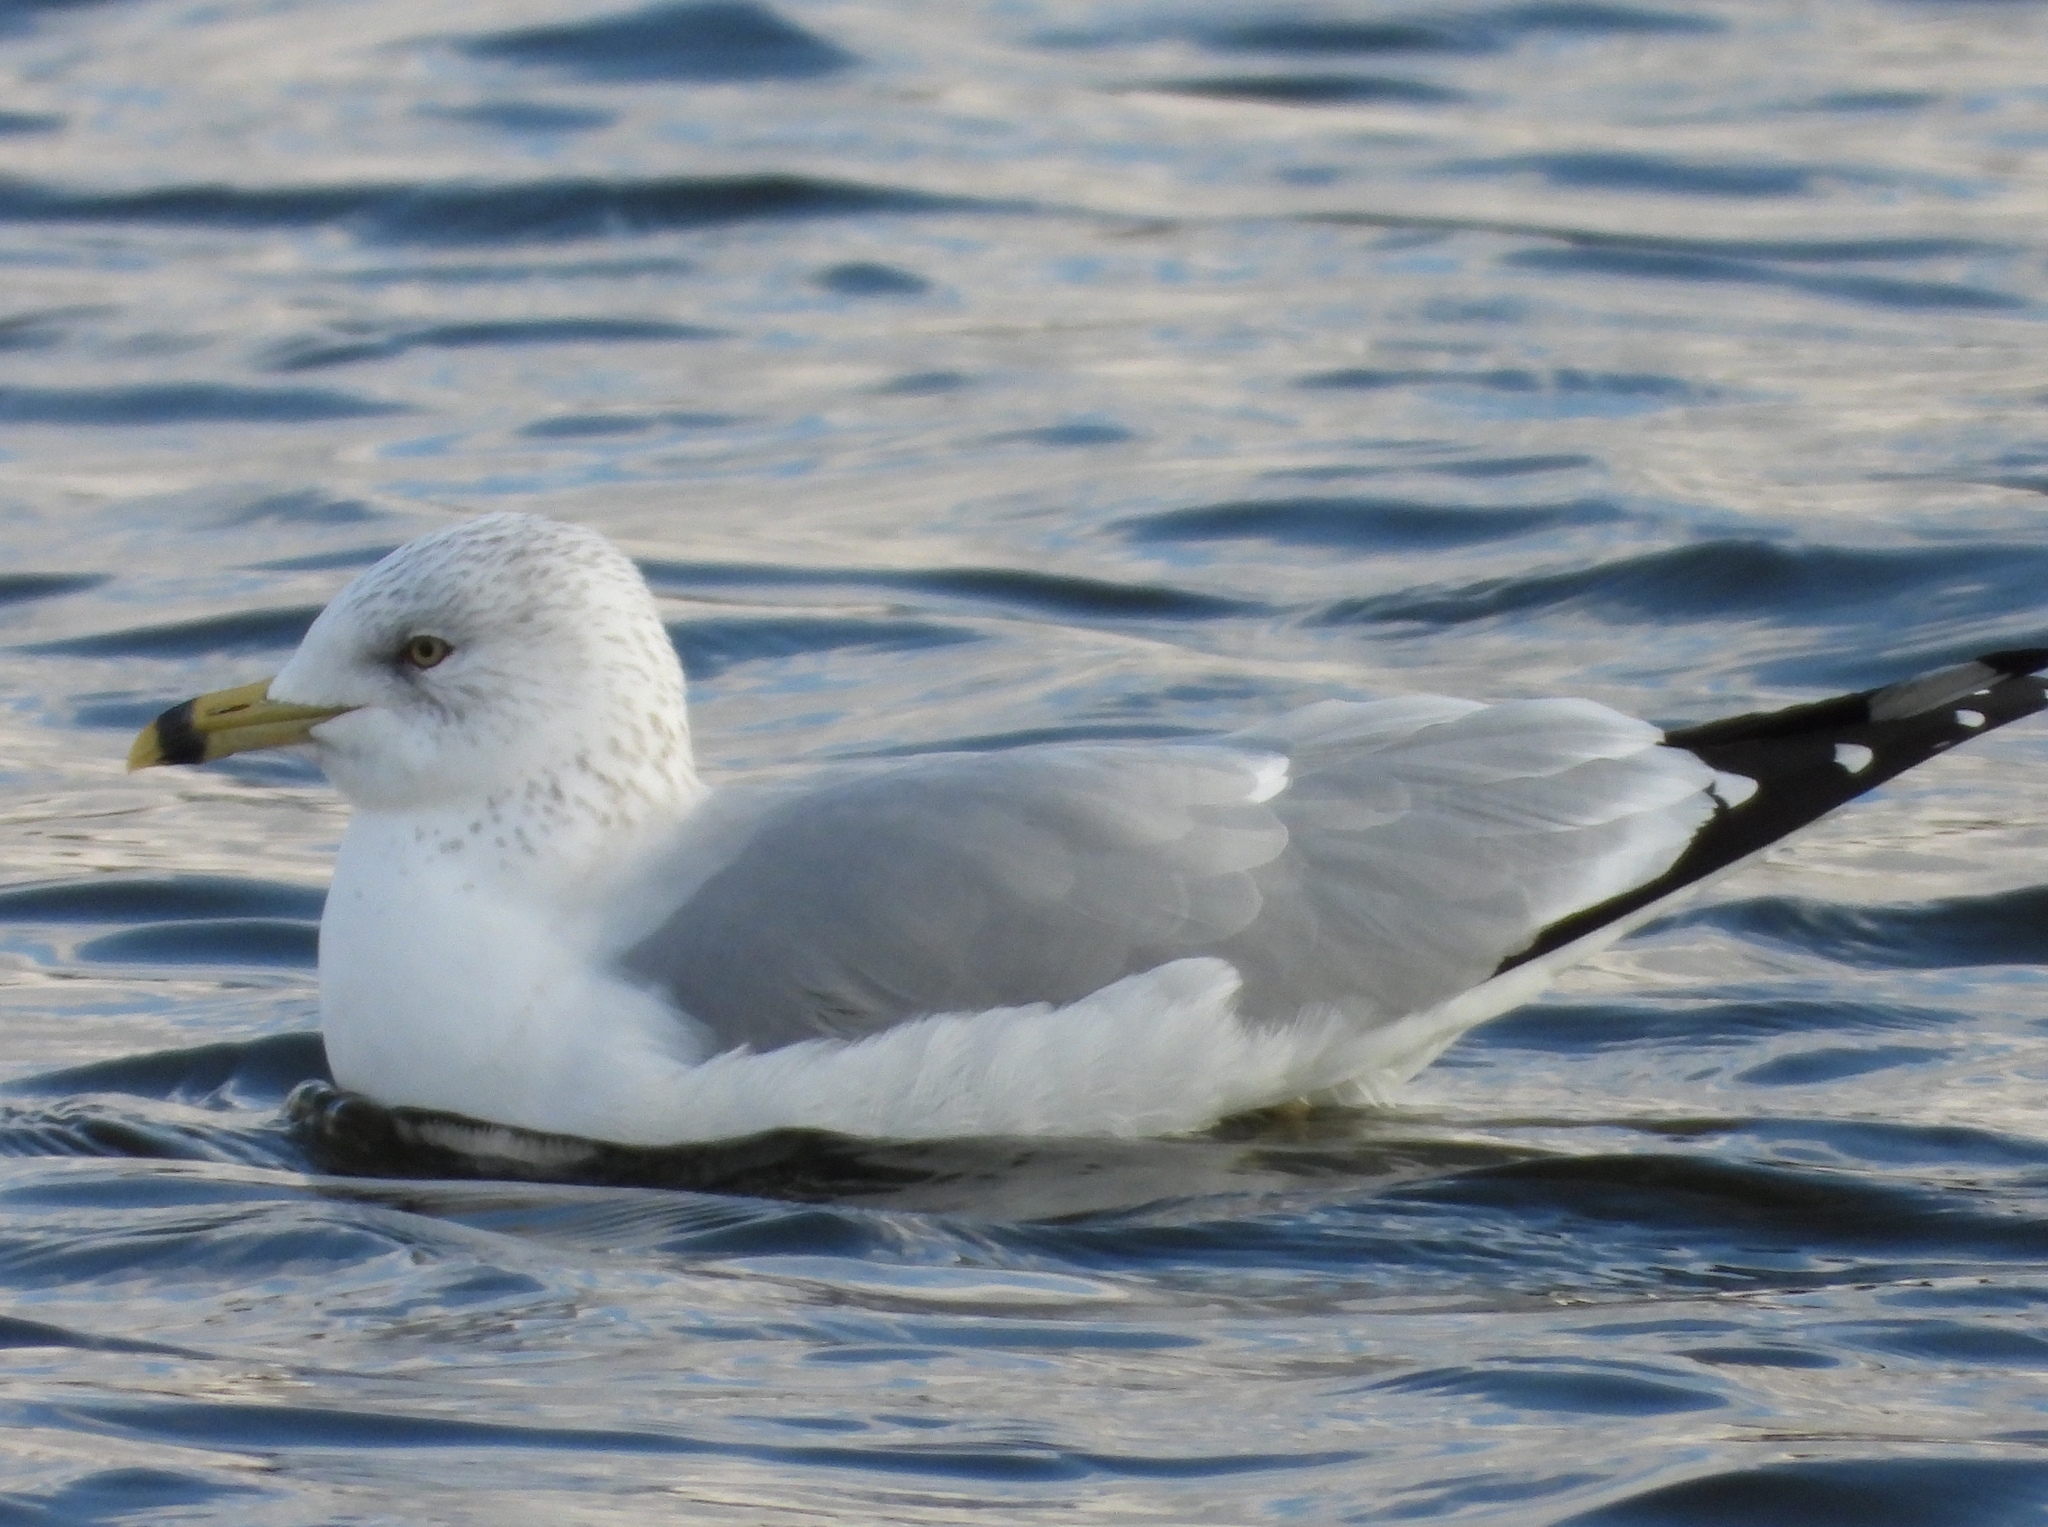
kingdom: Animalia
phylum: Chordata
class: Aves
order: Charadriiformes
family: Laridae
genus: Larus
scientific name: Larus delawarensis
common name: Ring-billed gull
